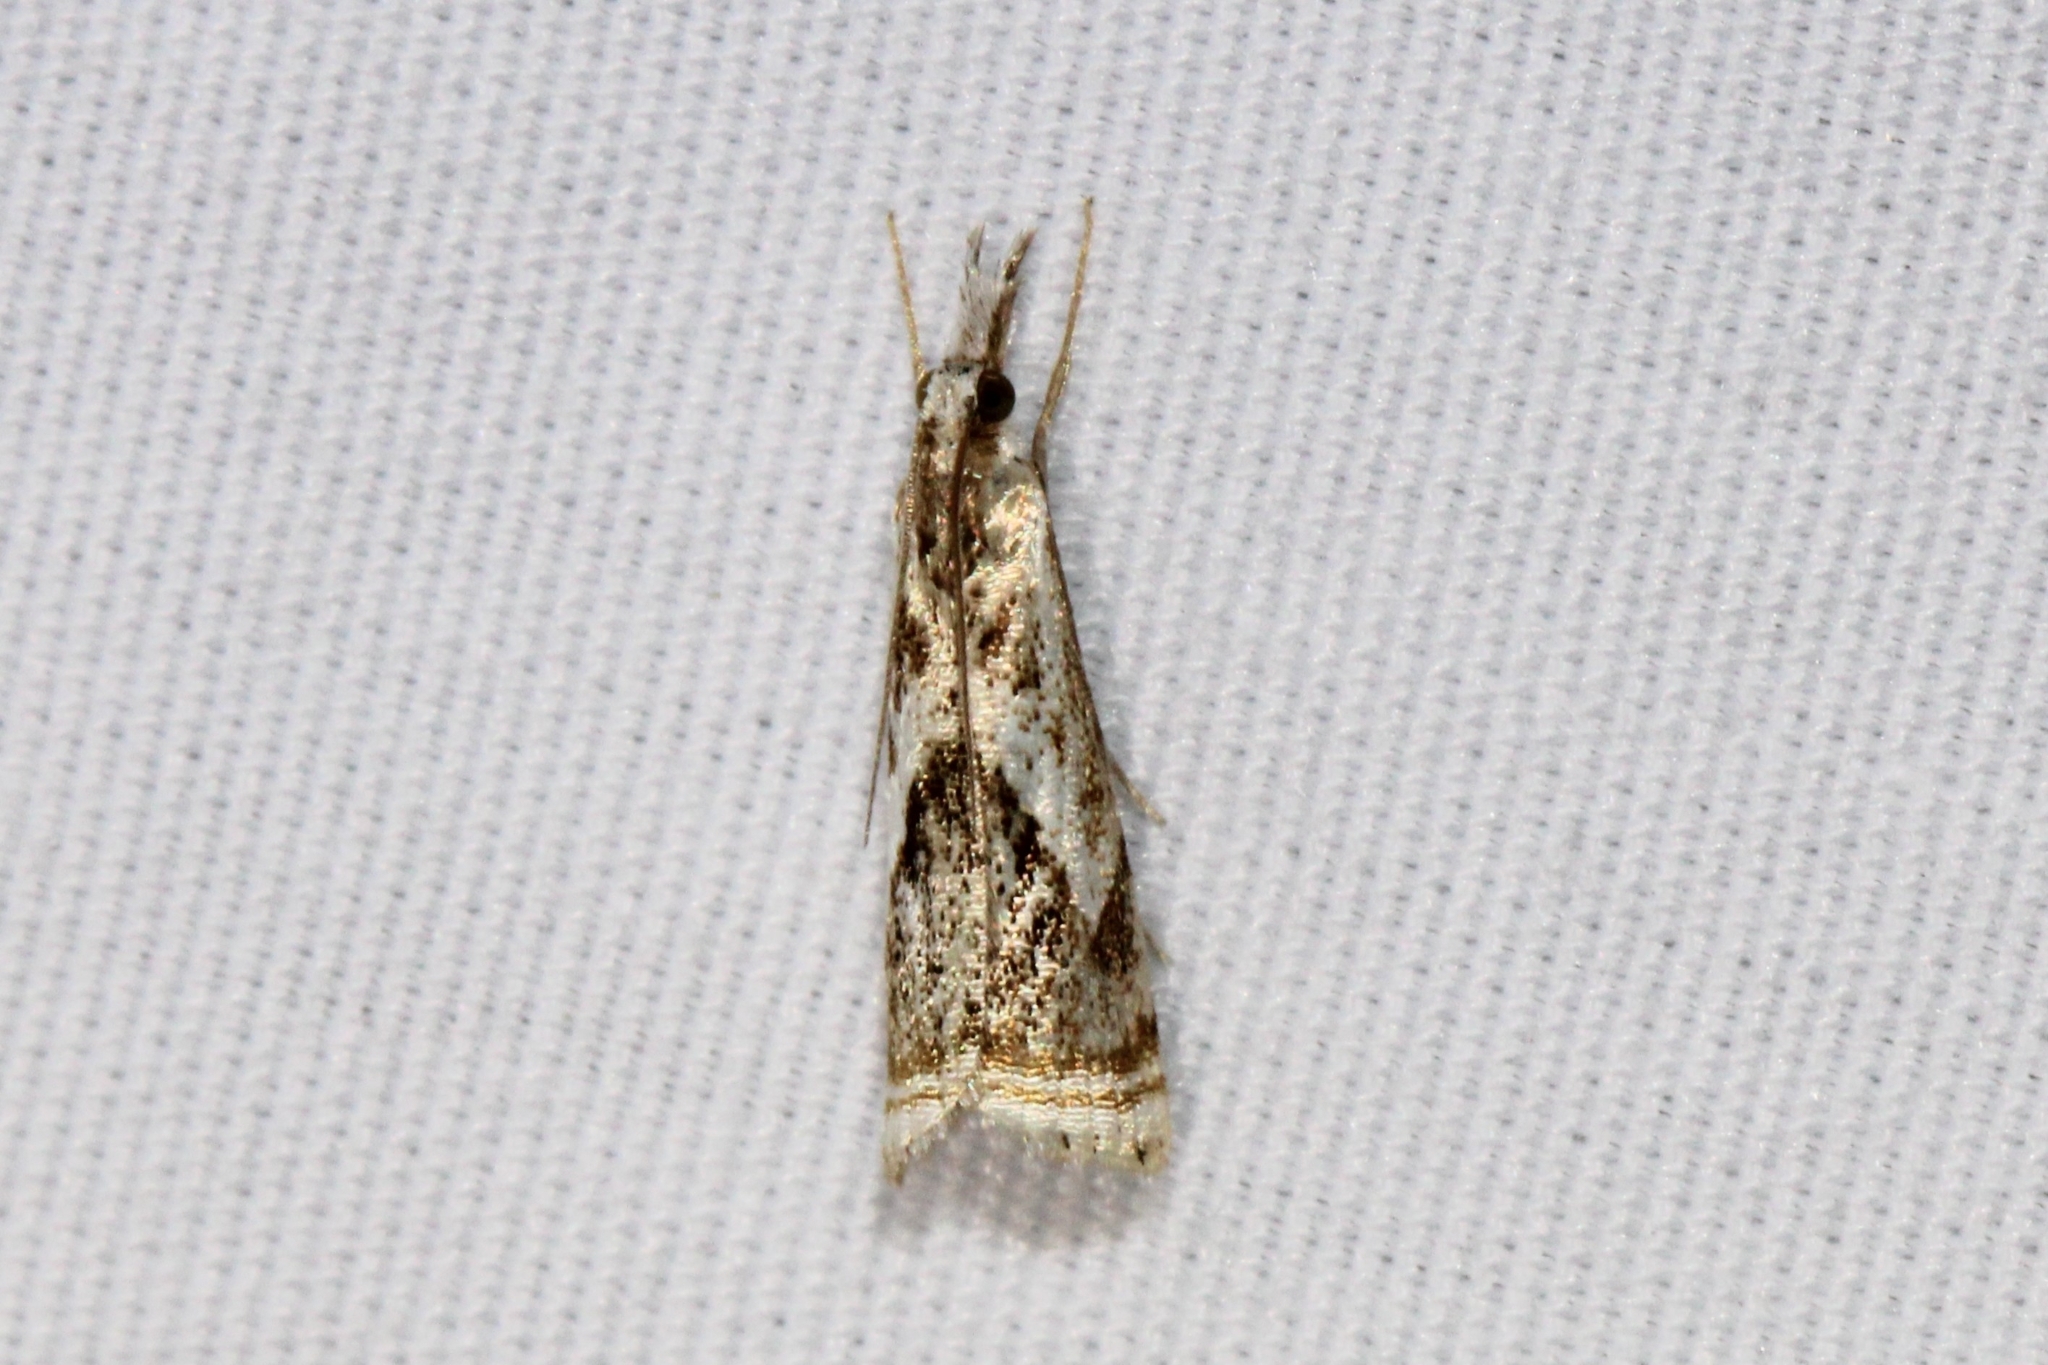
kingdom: Animalia
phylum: Arthropoda
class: Insecta
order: Lepidoptera
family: Crambidae
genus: Microcrambus
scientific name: Microcrambus elegans
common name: Elegant grass-veneer
